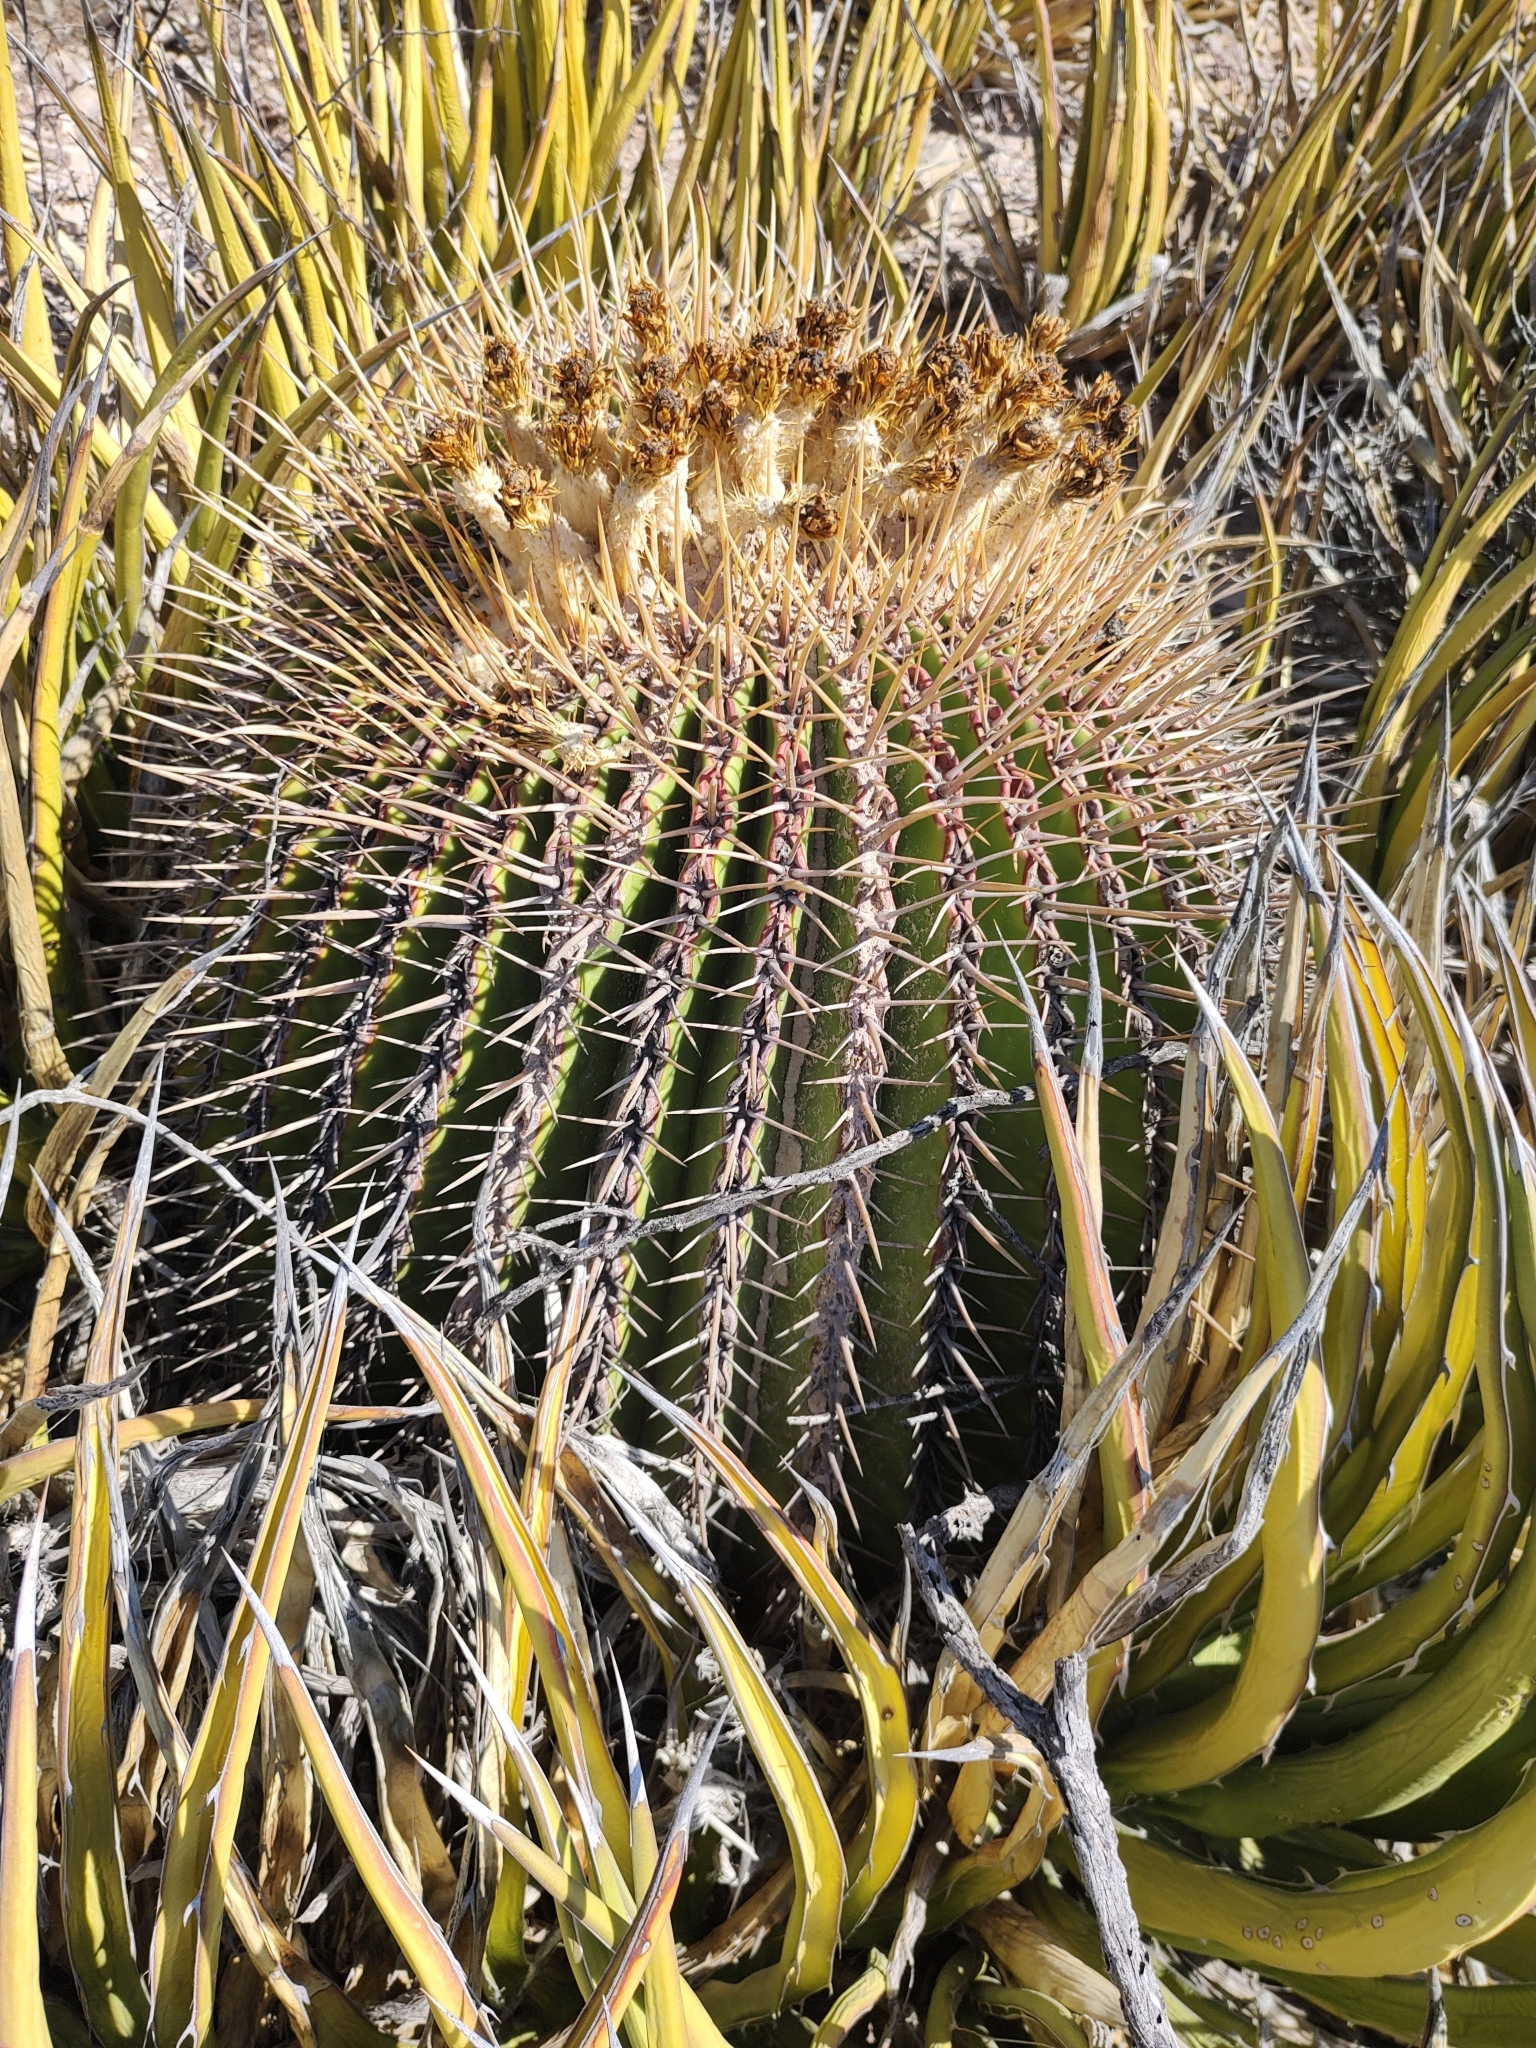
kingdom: Plantae
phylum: Tracheophyta
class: Magnoliopsida
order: Caryophyllales
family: Cactaceae
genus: Echinocactus
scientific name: Echinocactus platyacanthus
